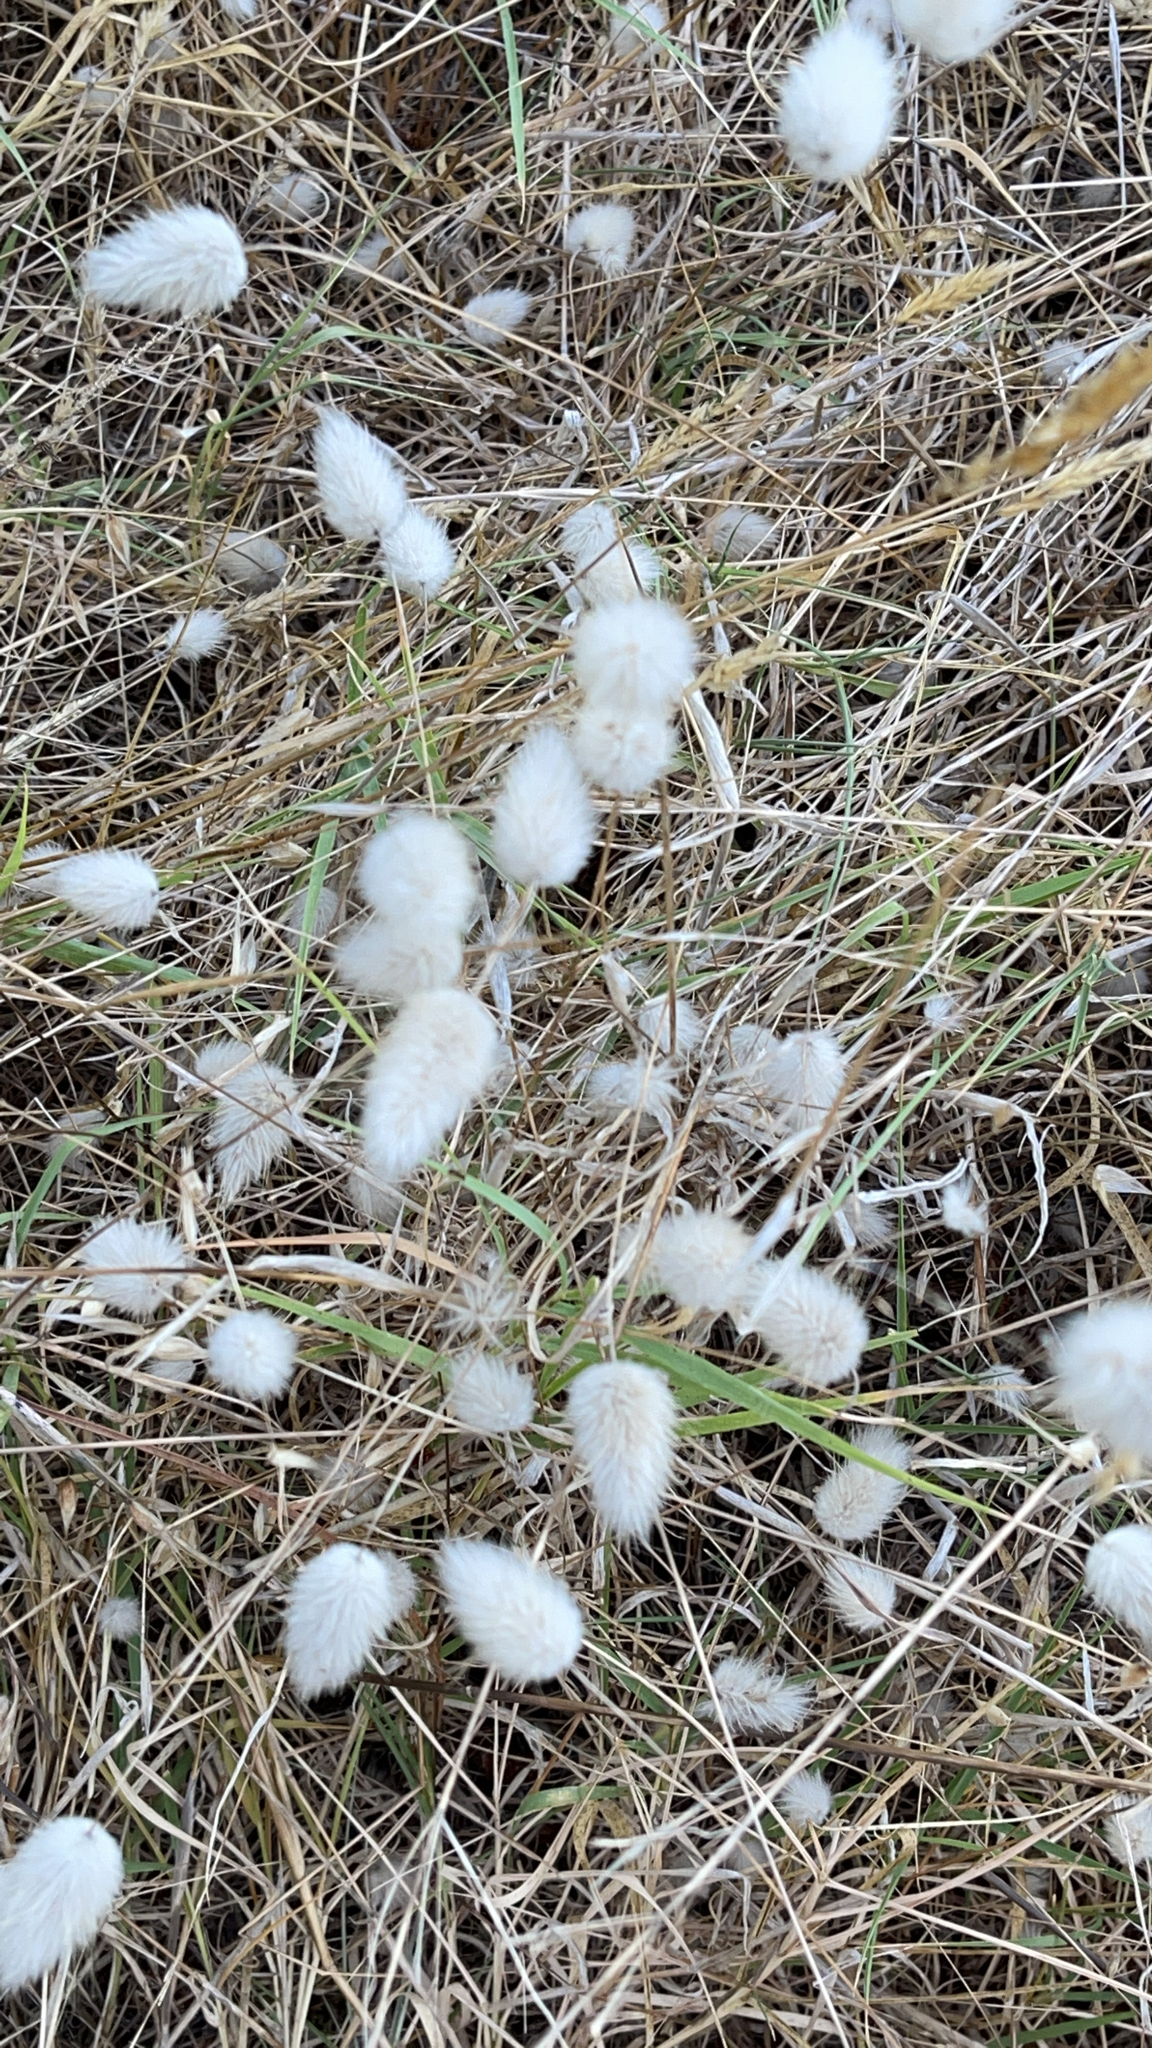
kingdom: Plantae
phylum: Tracheophyta
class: Liliopsida
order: Poales
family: Poaceae
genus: Lagurus
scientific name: Lagurus ovatus
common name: Hare's-tail
